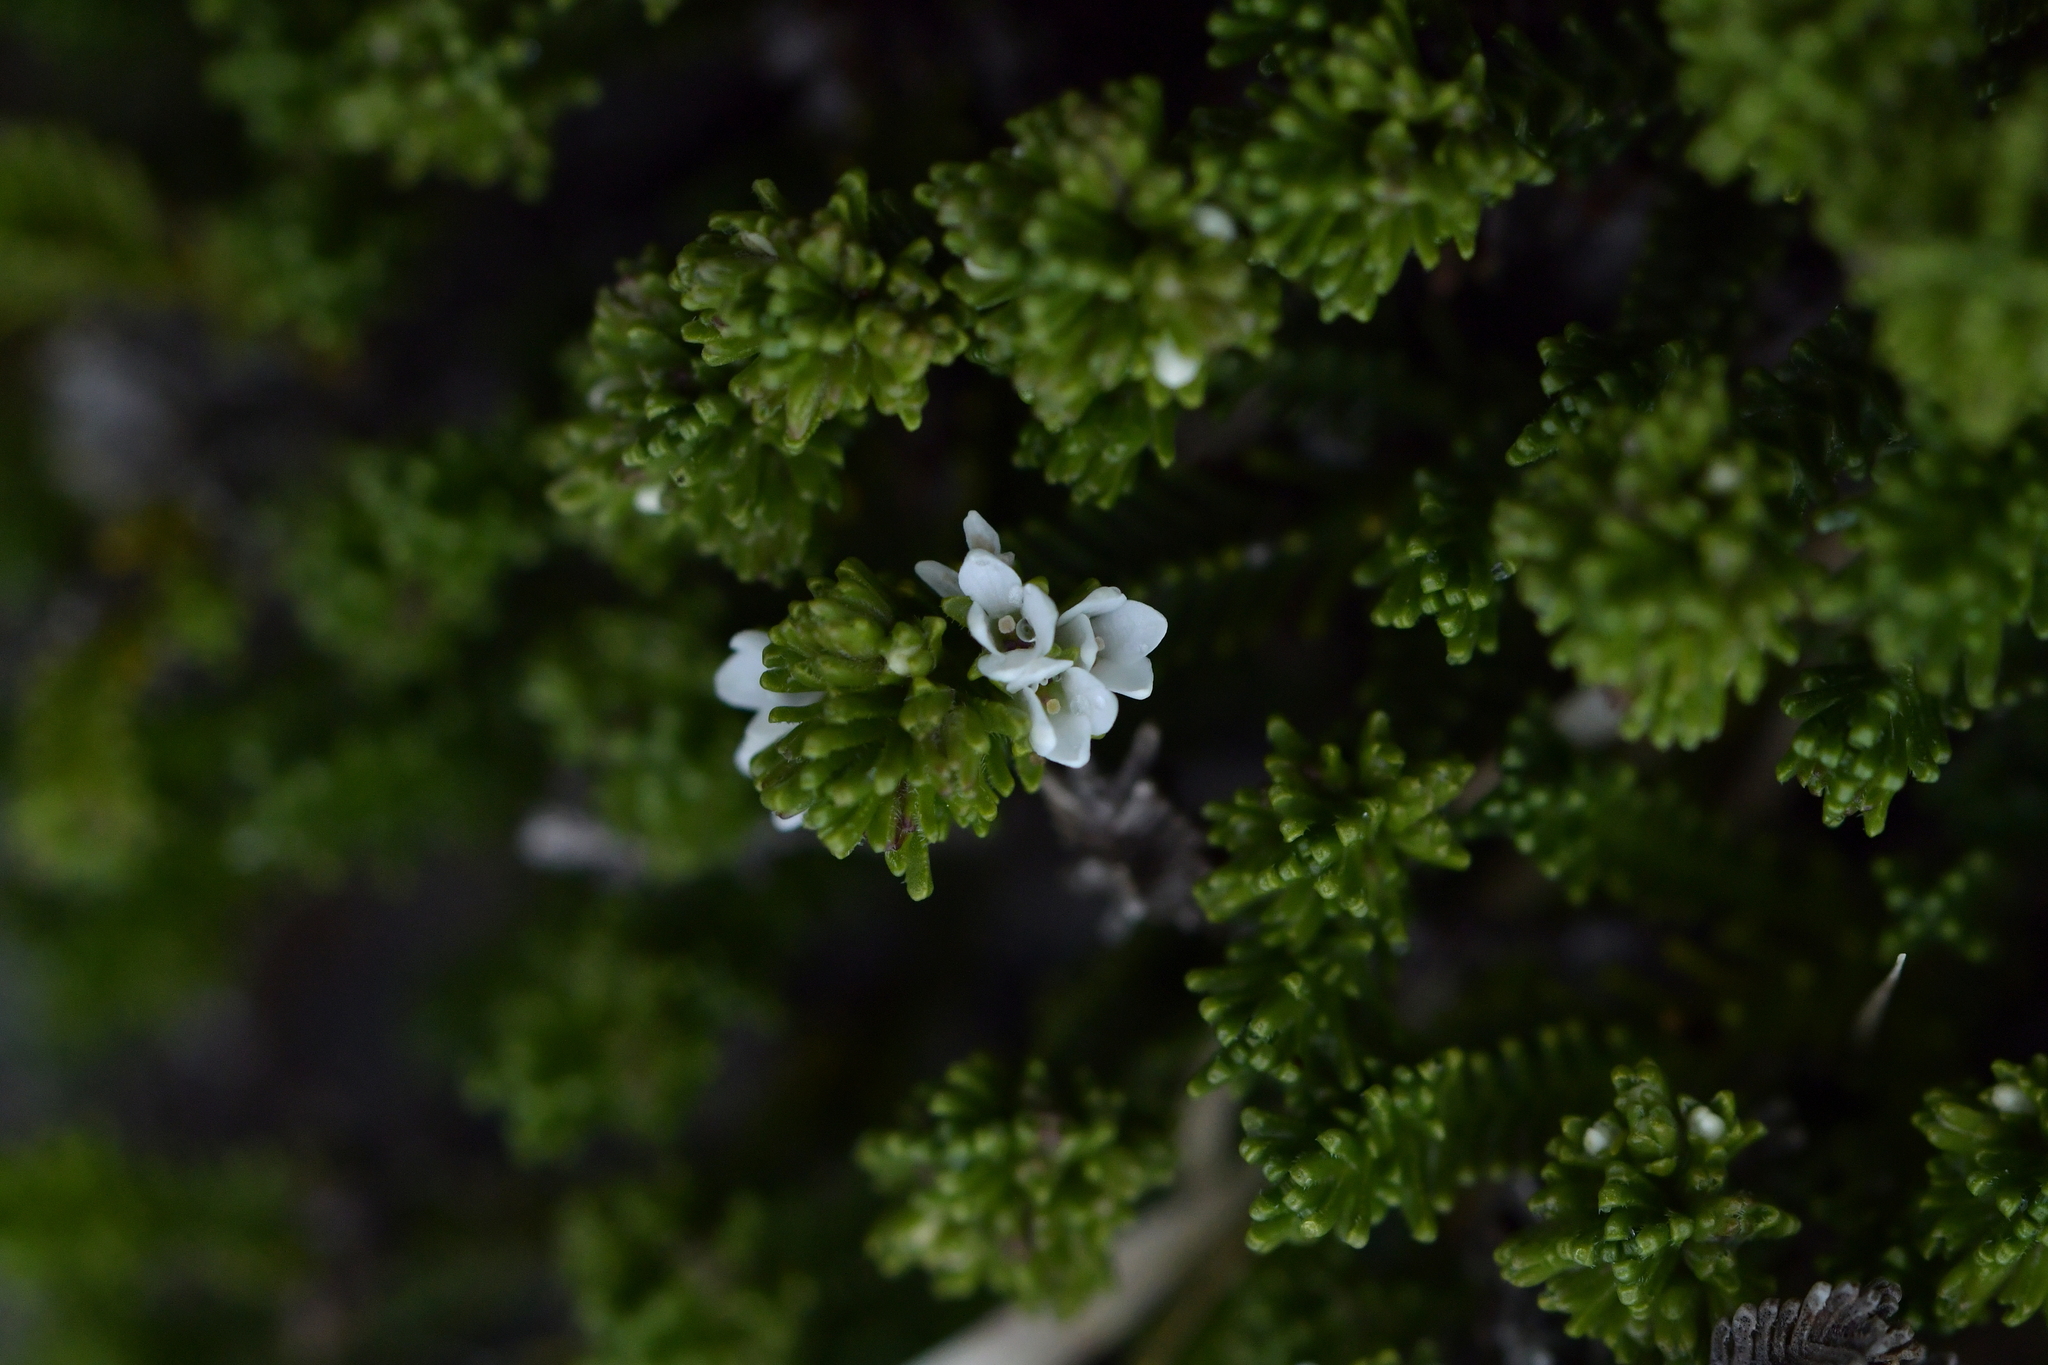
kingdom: Plantae
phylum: Tracheophyta
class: Magnoliopsida
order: Lamiales
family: Plantaginaceae
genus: Veronica
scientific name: Veronica hookeri
